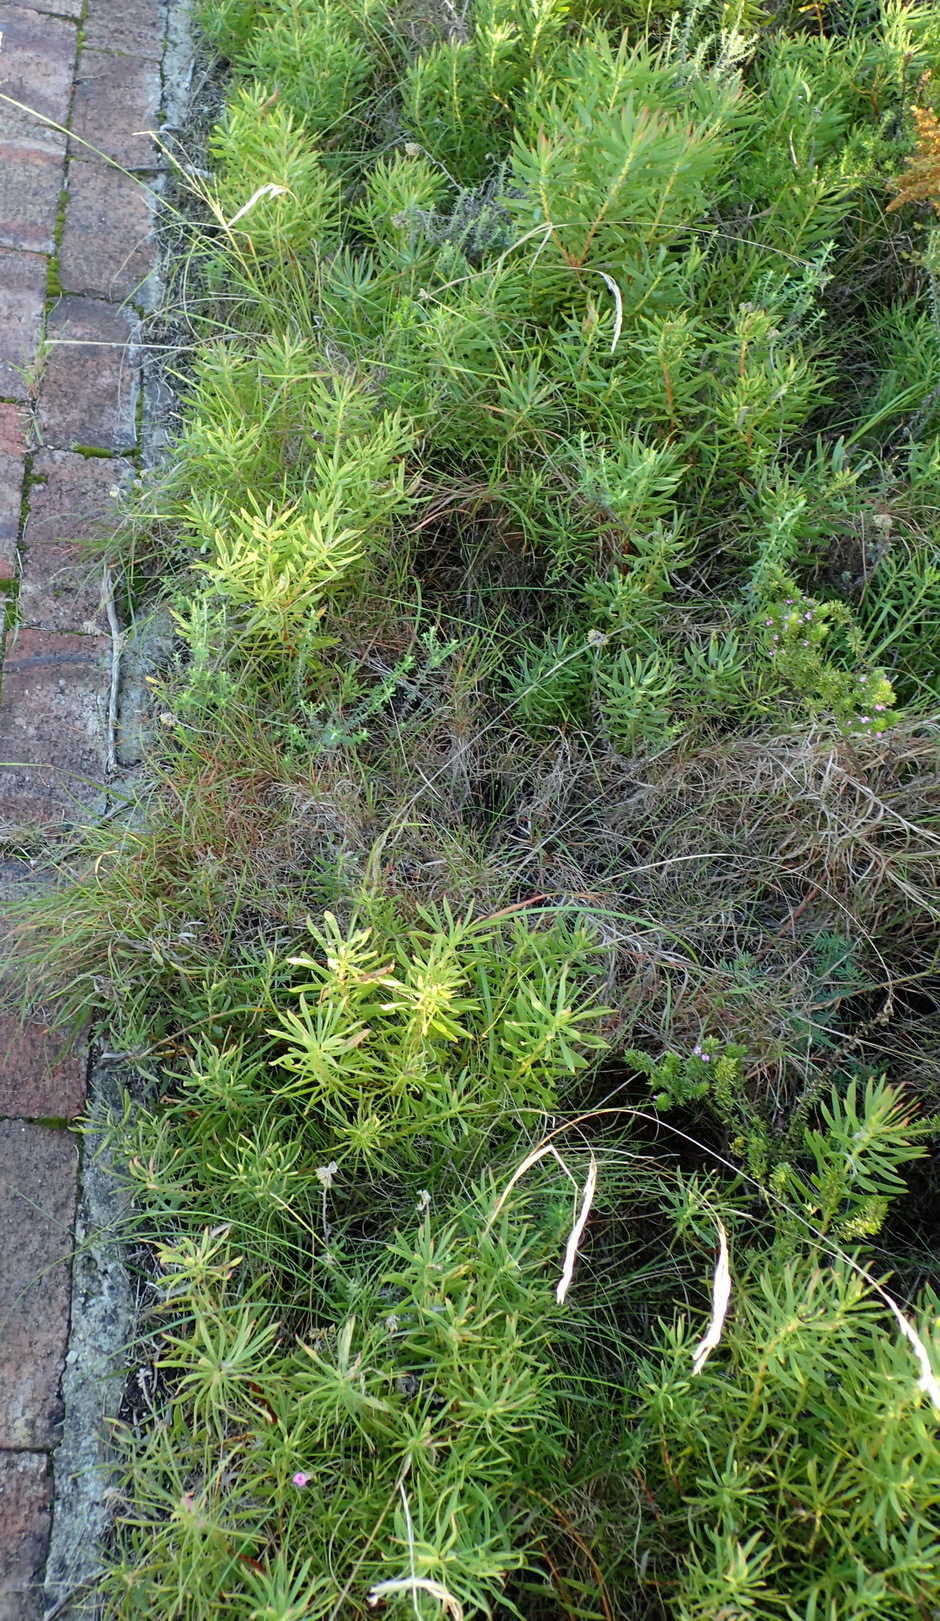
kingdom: Plantae
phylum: Tracheophyta
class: Magnoliopsida
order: Proteales
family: Proteaceae
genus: Leucadendron
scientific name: Leucadendron salignum
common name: Common sunshine conebush
